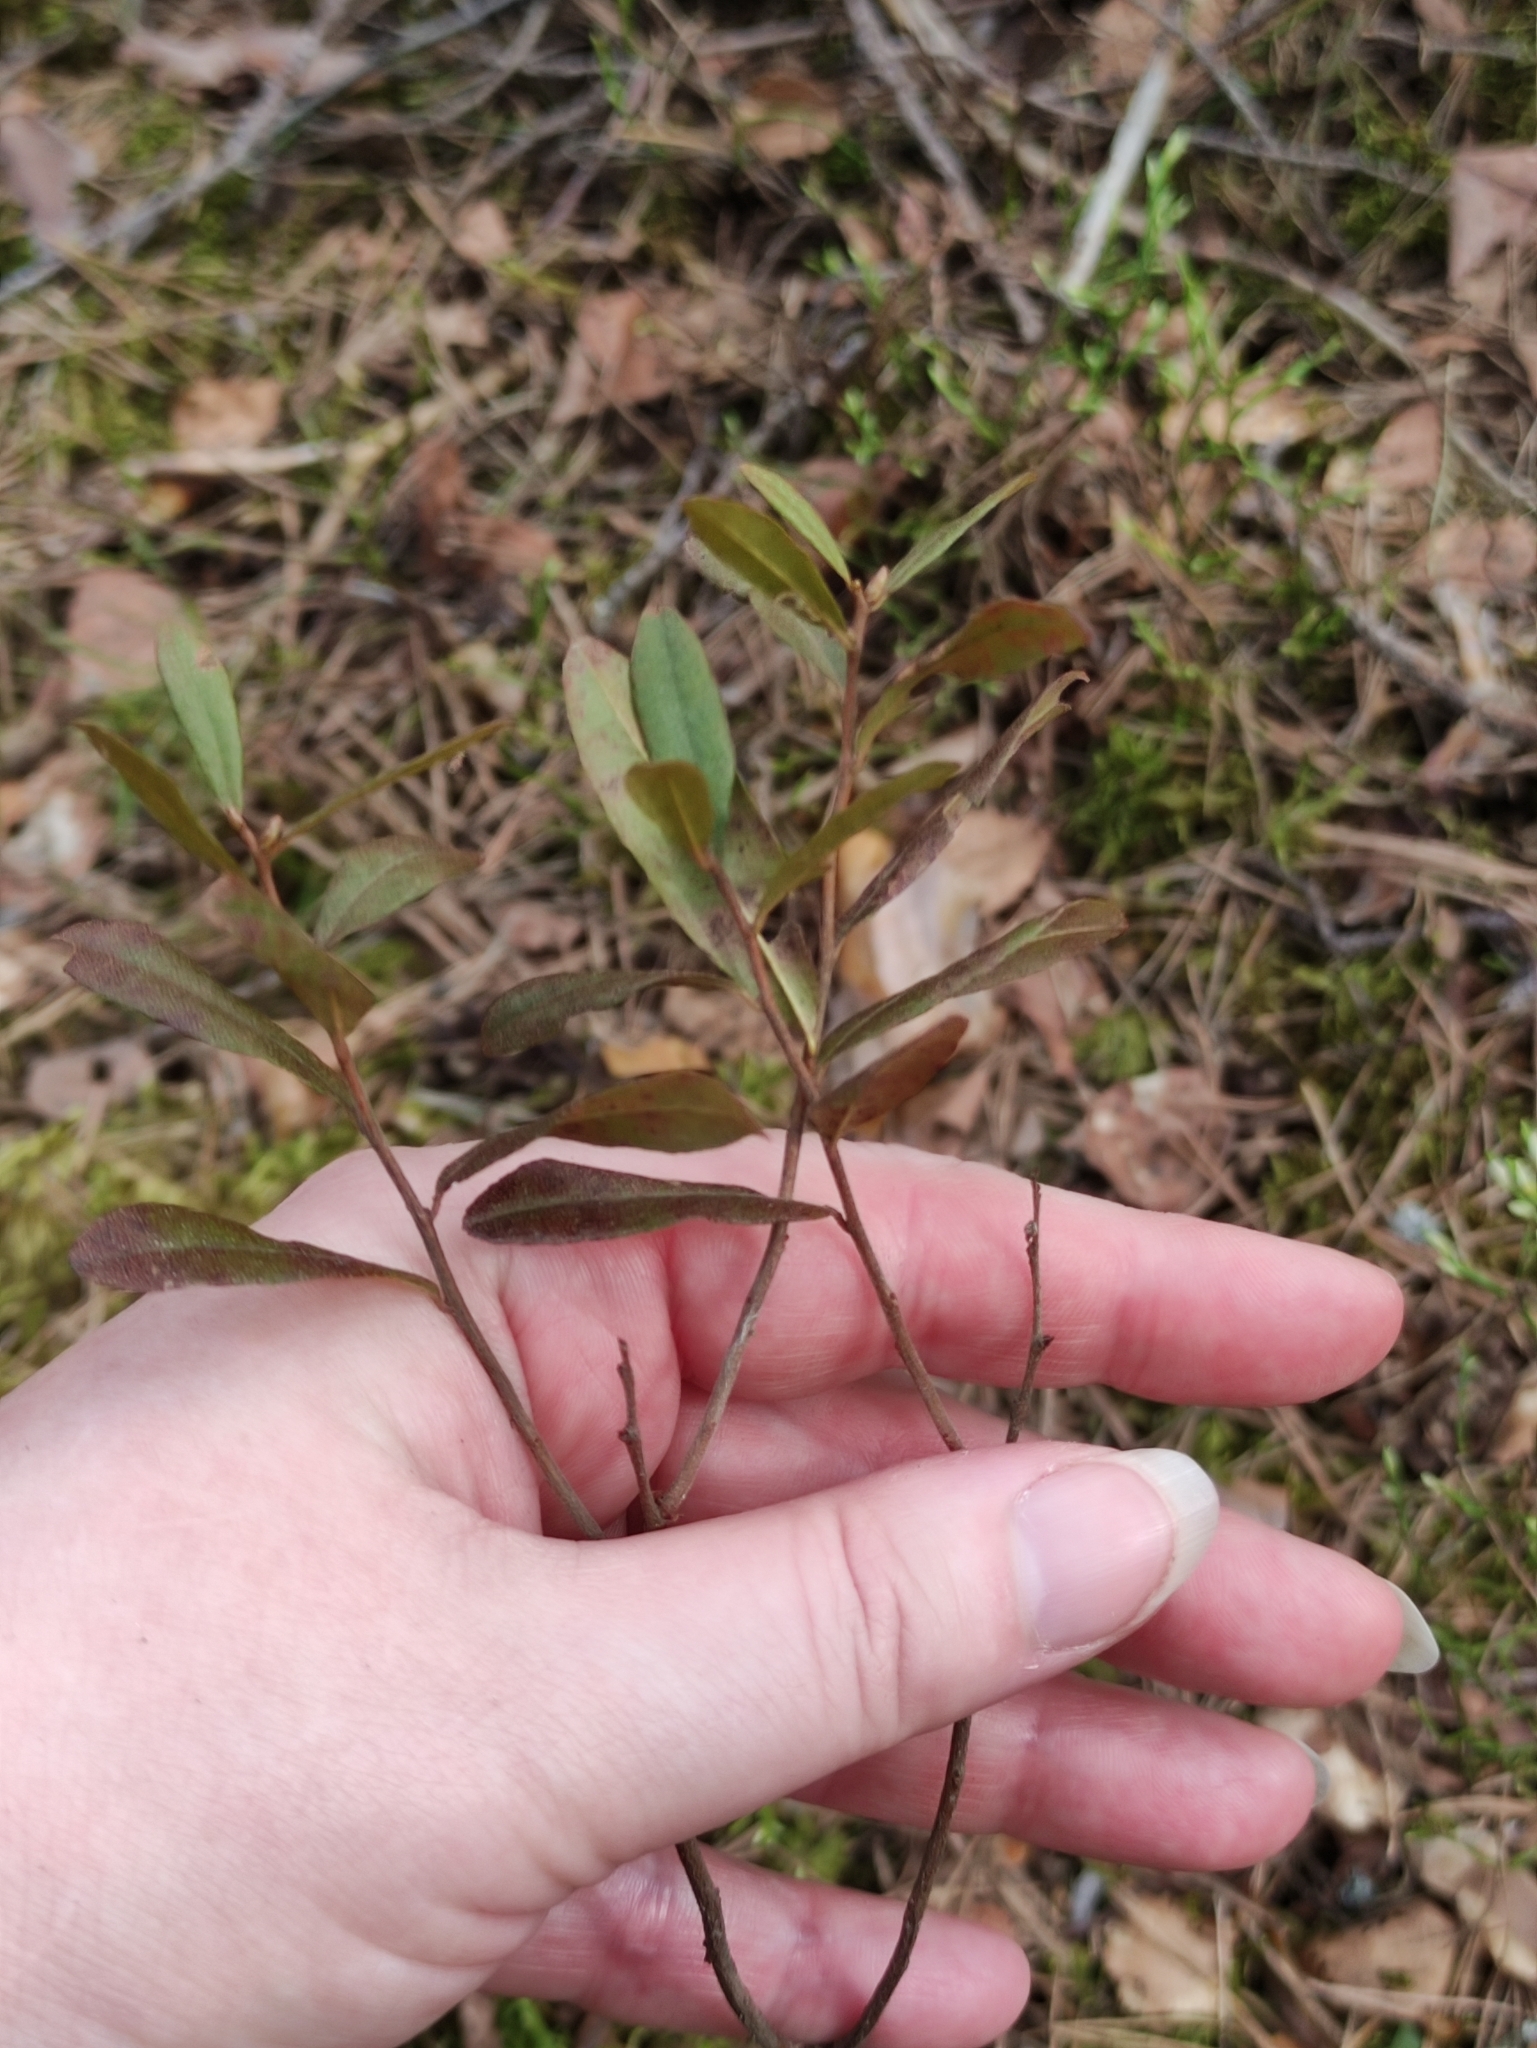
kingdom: Plantae
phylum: Tracheophyta
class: Magnoliopsida
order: Ericales
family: Ericaceae
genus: Chamaedaphne
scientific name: Chamaedaphne calyculata
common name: Leatherleaf
